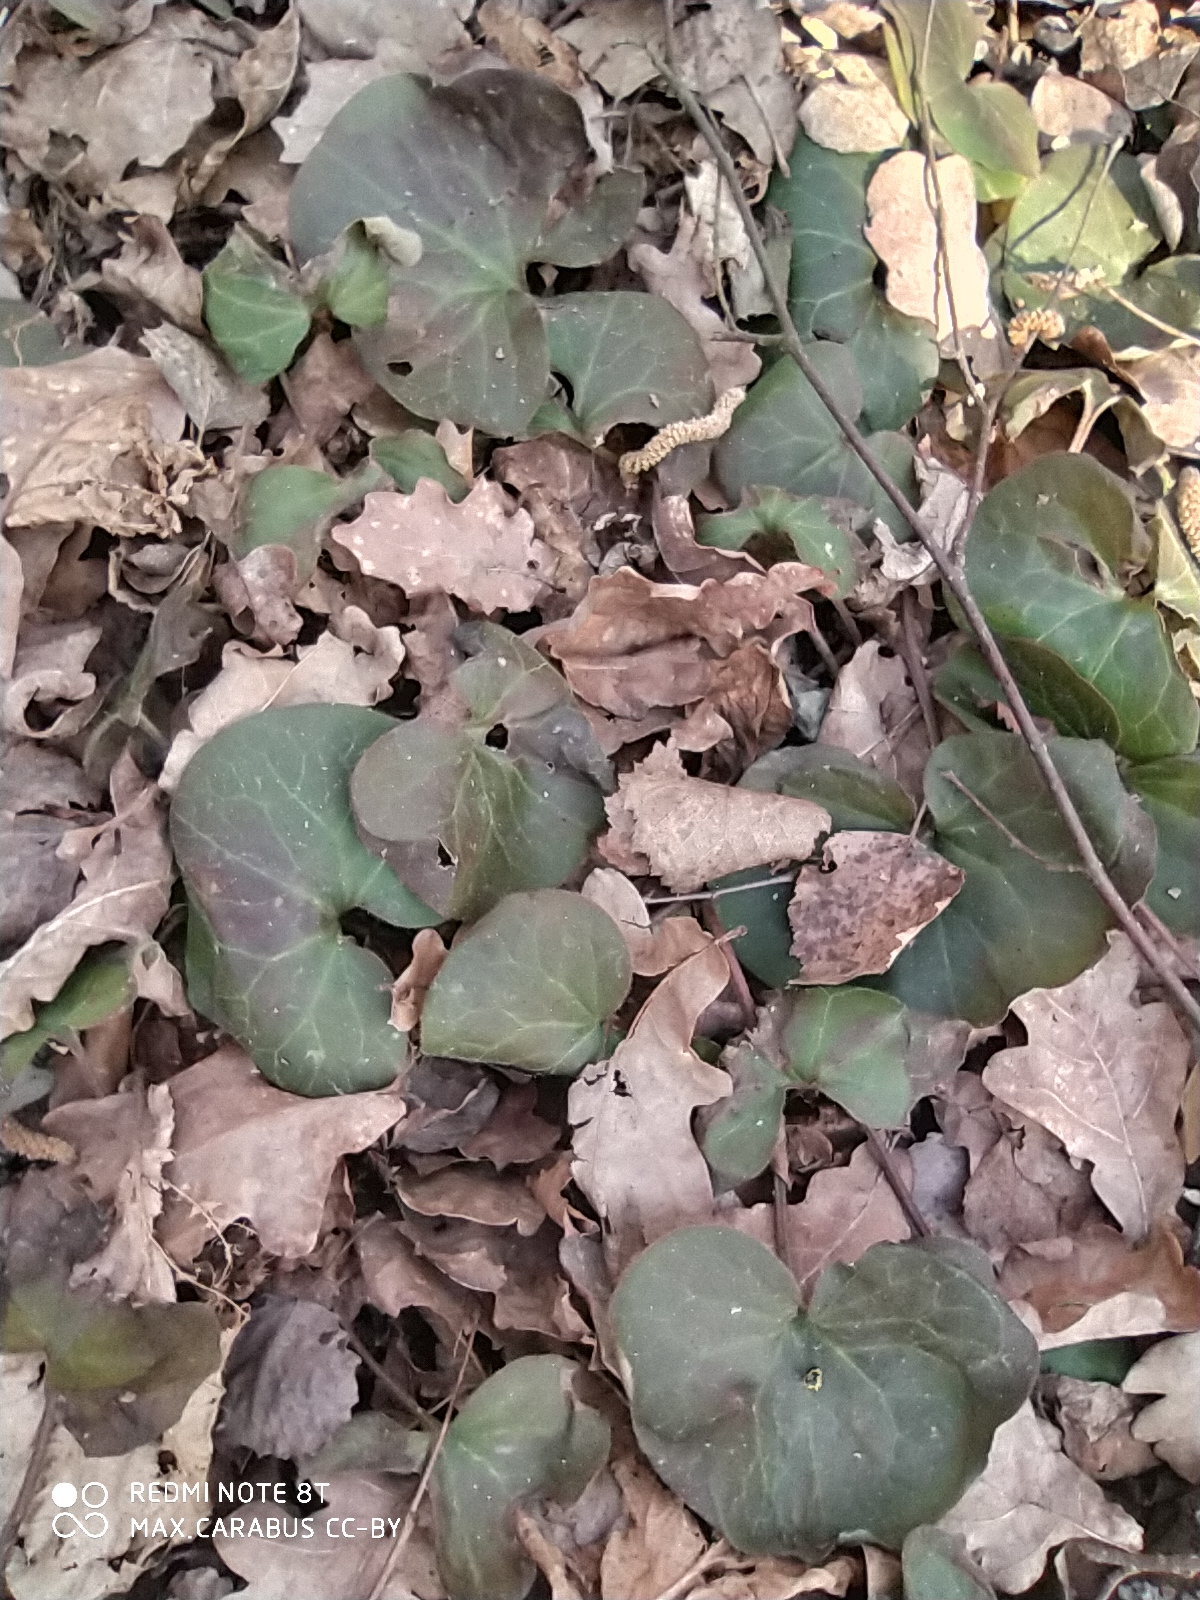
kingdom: Plantae
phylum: Tracheophyta
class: Magnoliopsida
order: Piperales
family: Aristolochiaceae
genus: Asarum
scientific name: Asarum europaeum
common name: Asarabacca
